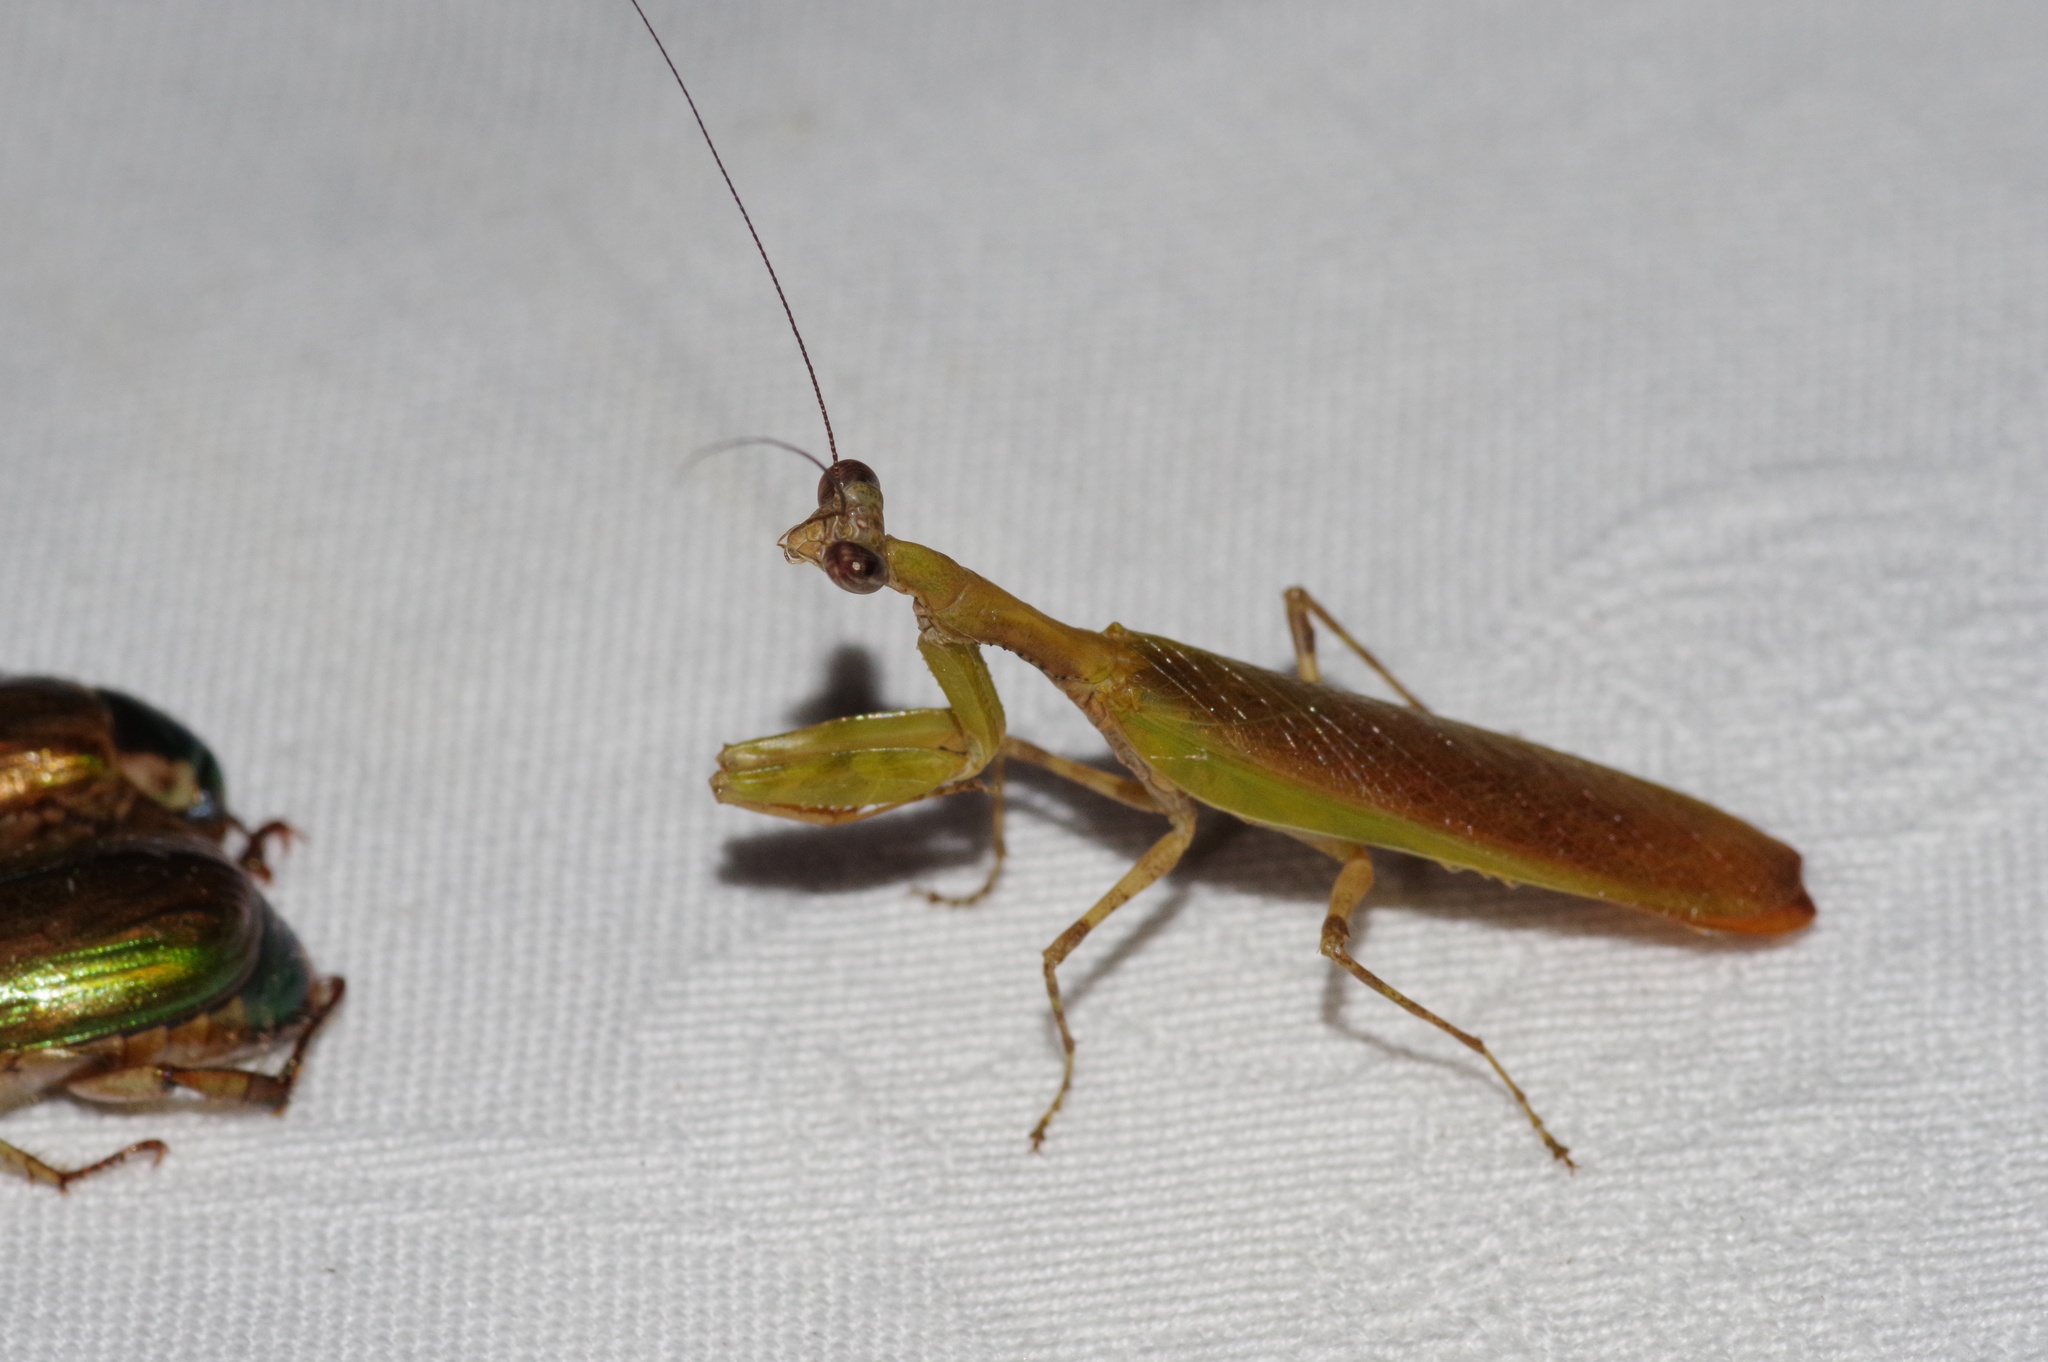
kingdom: Animalia
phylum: Arthropoda
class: Insecta
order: Mantodea
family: Hymenopodidae
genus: Acromantis
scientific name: Acromantis satsumensis
